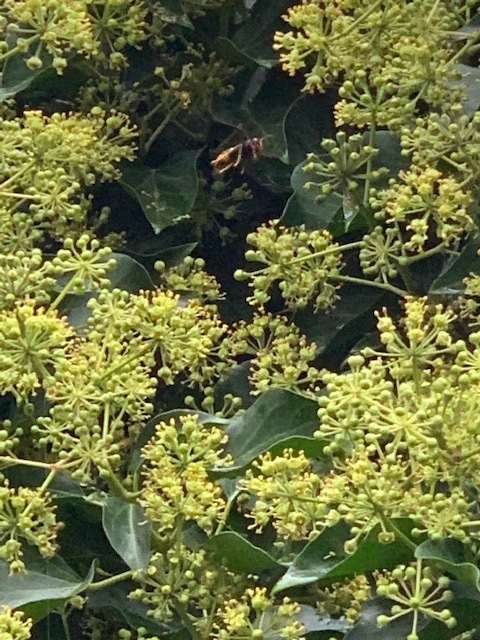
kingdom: Animalia
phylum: Arthropoda
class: Insecta
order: Hymenoptera
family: Vespidae
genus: Vespa
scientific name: Vespa velutina
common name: Asian hornet
